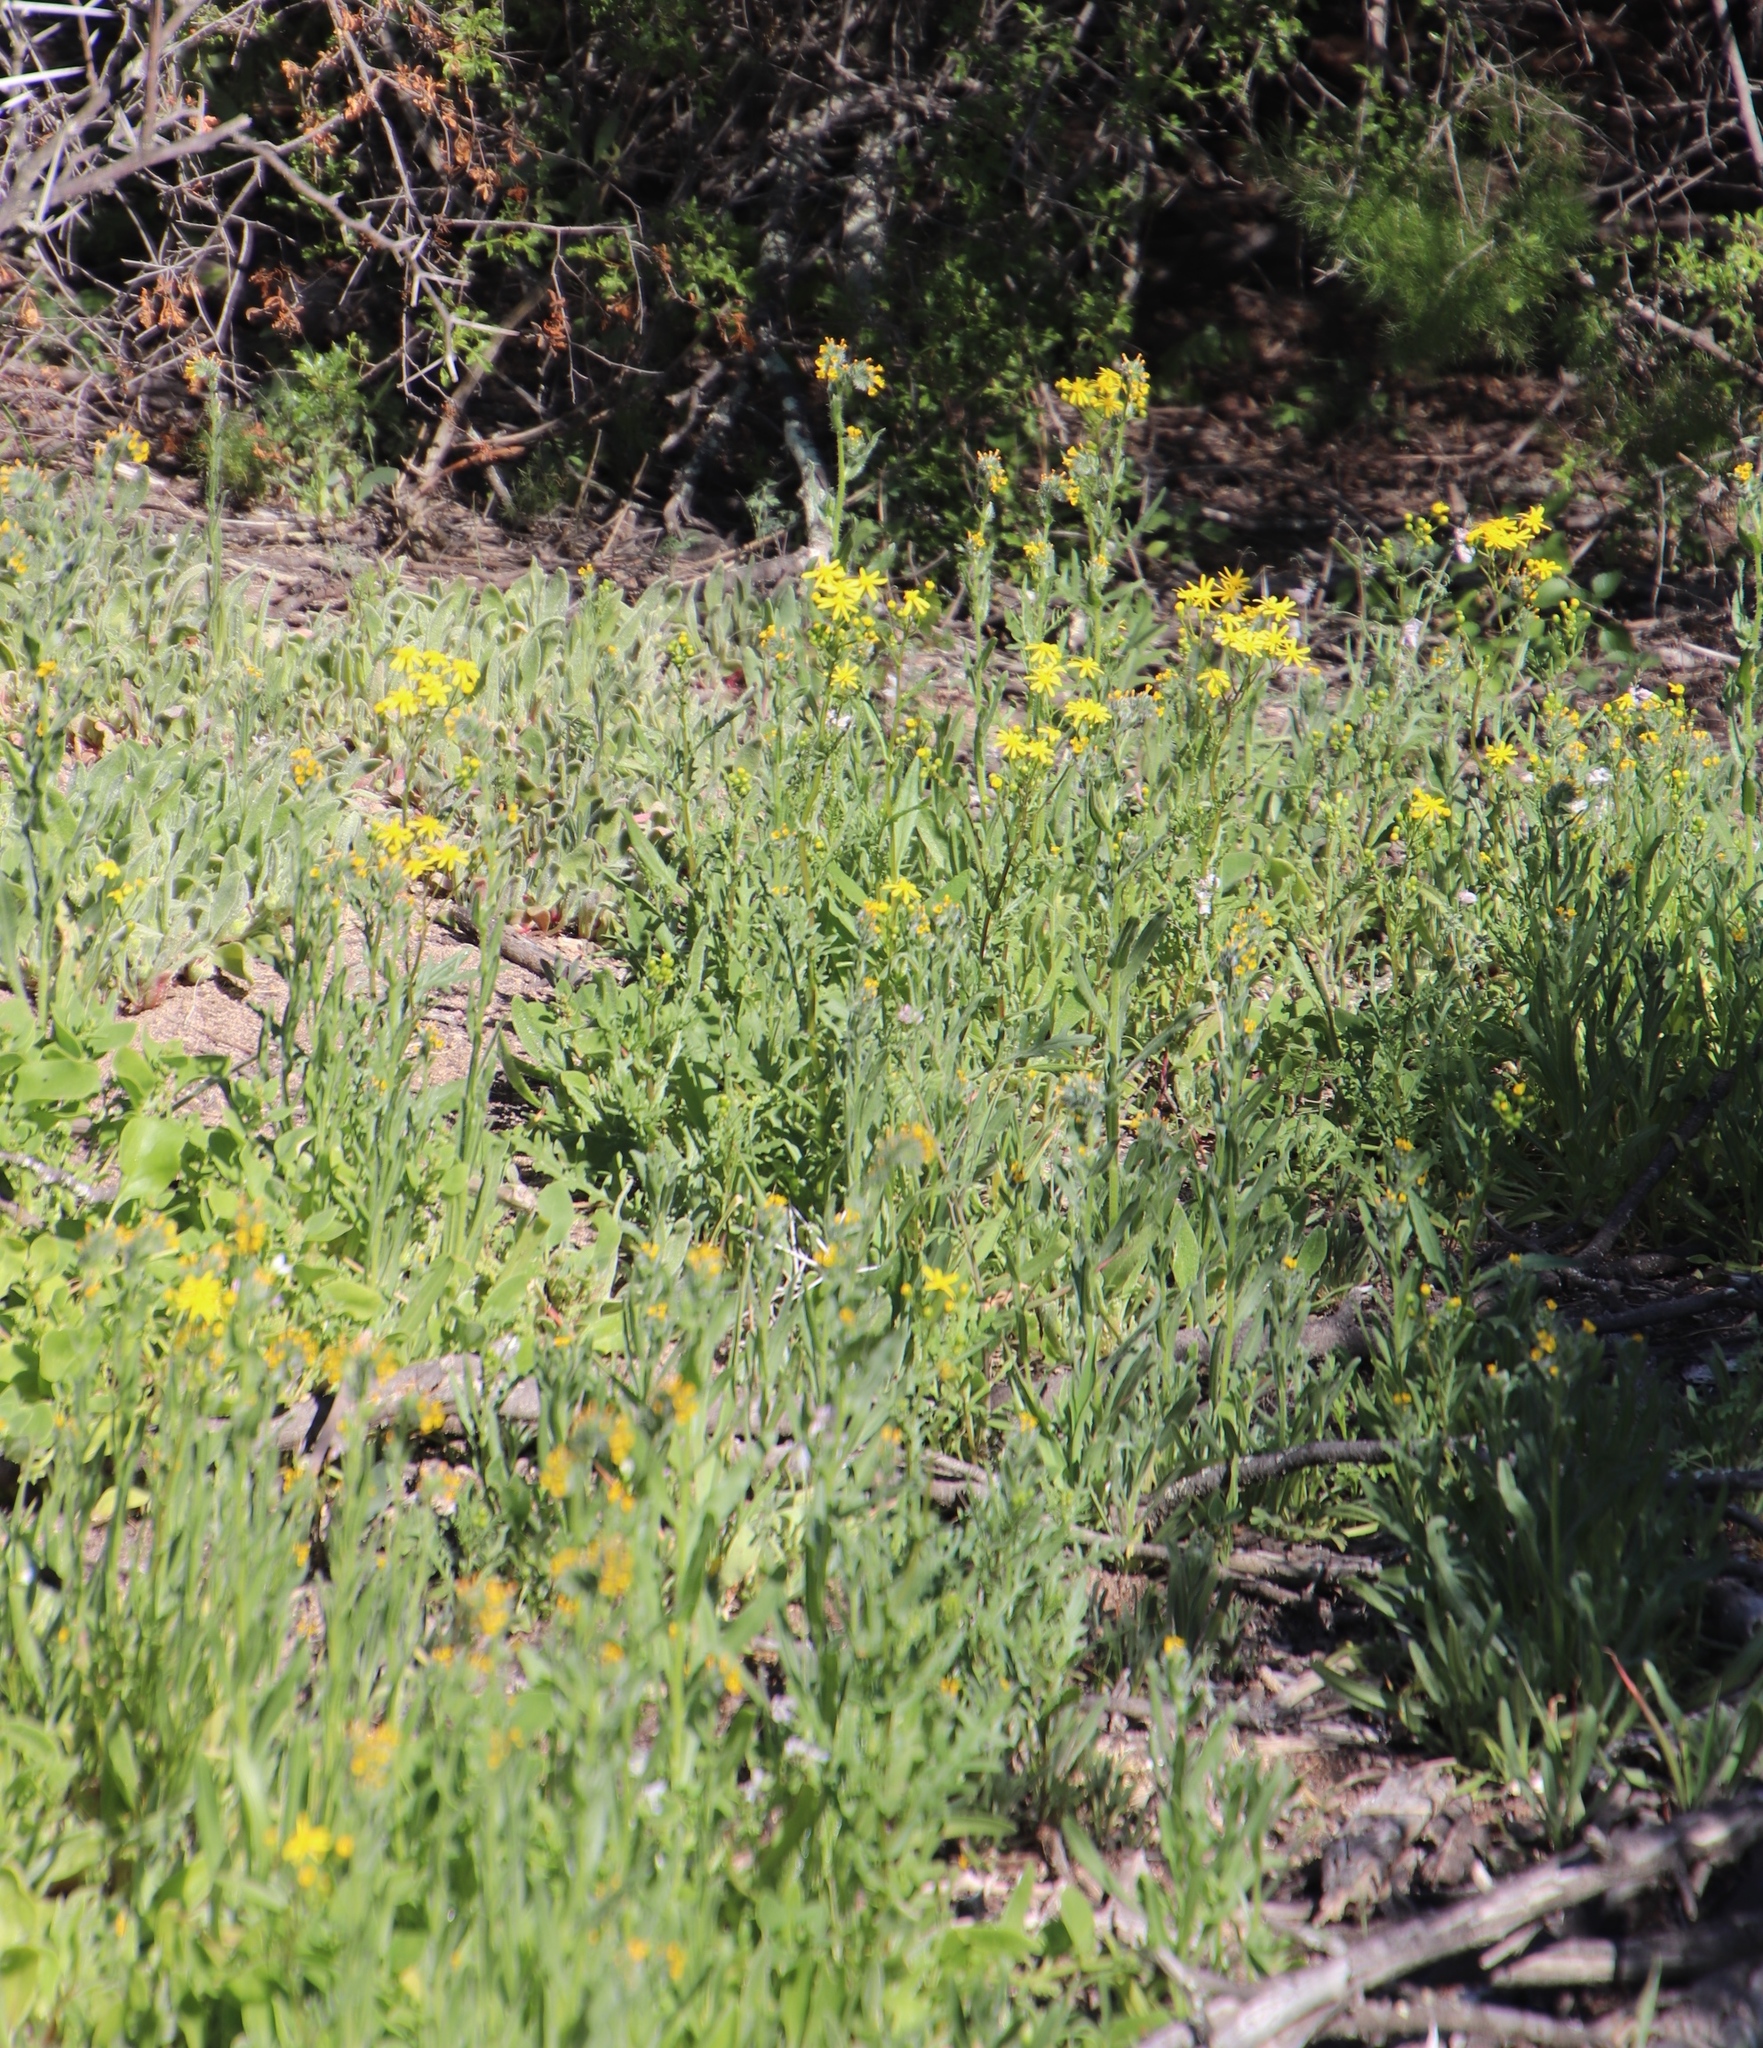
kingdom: Plantae
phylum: Tracheophyta
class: Magnoliopsida
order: Asterales
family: Asteraceae
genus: Senecio
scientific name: Senecio abruptus
